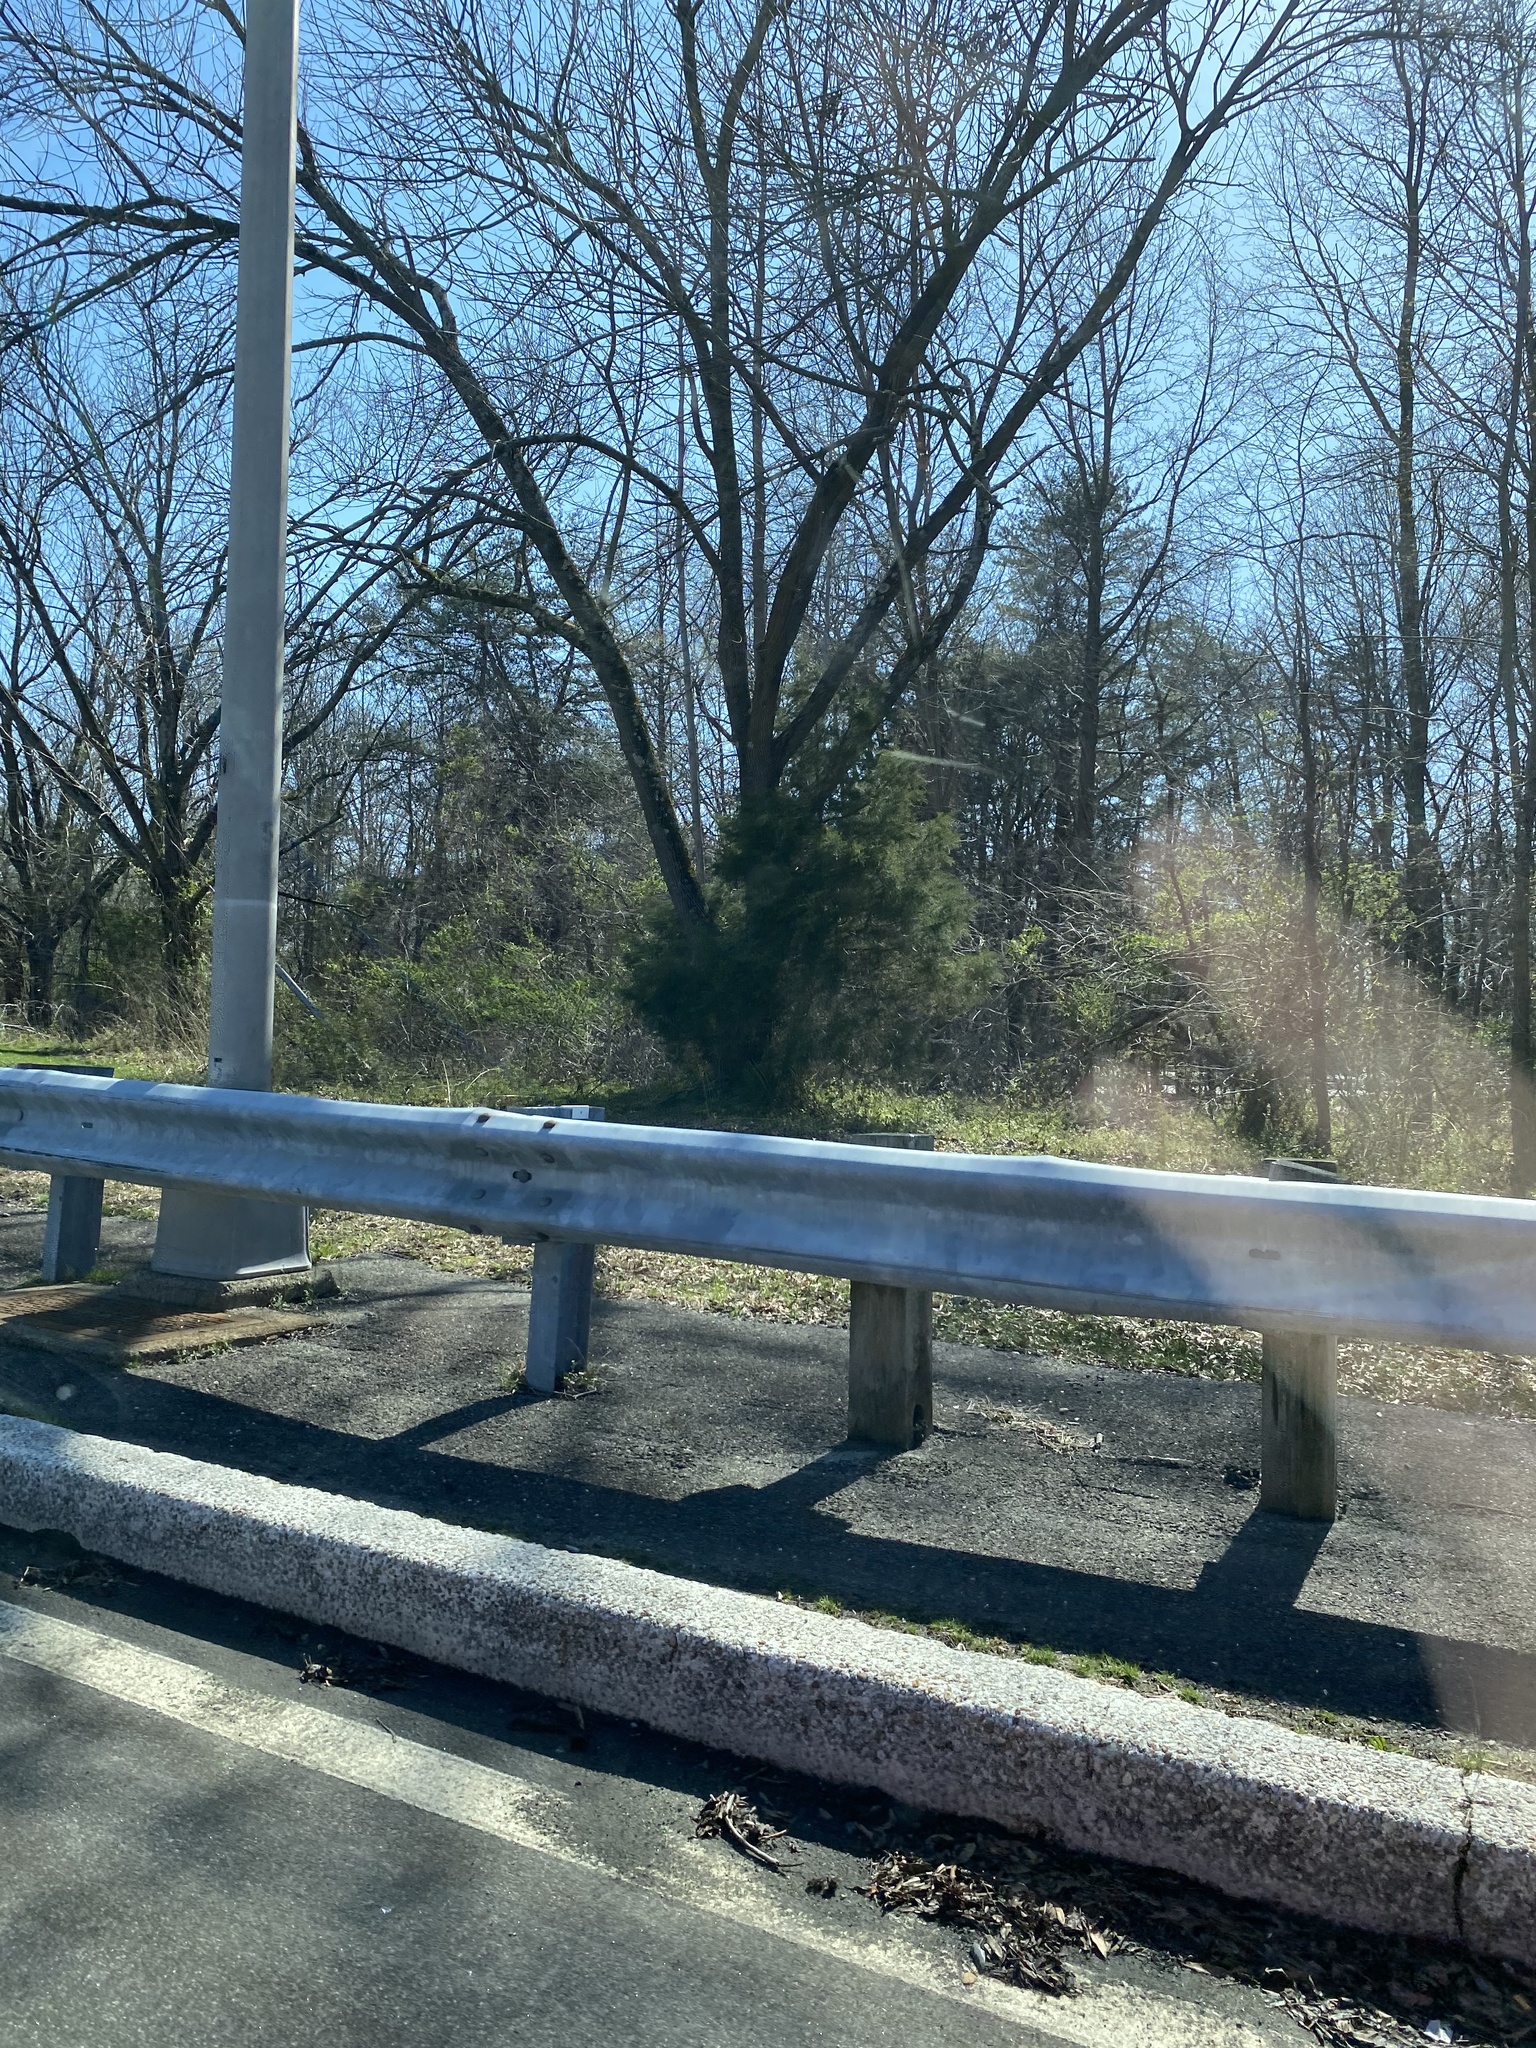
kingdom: Plantae
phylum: Tracheophyta
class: Pinopsida
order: Pinales
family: Cupressaceae
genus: Juniperus
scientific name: Juniperus virginiana
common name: Red juniper
